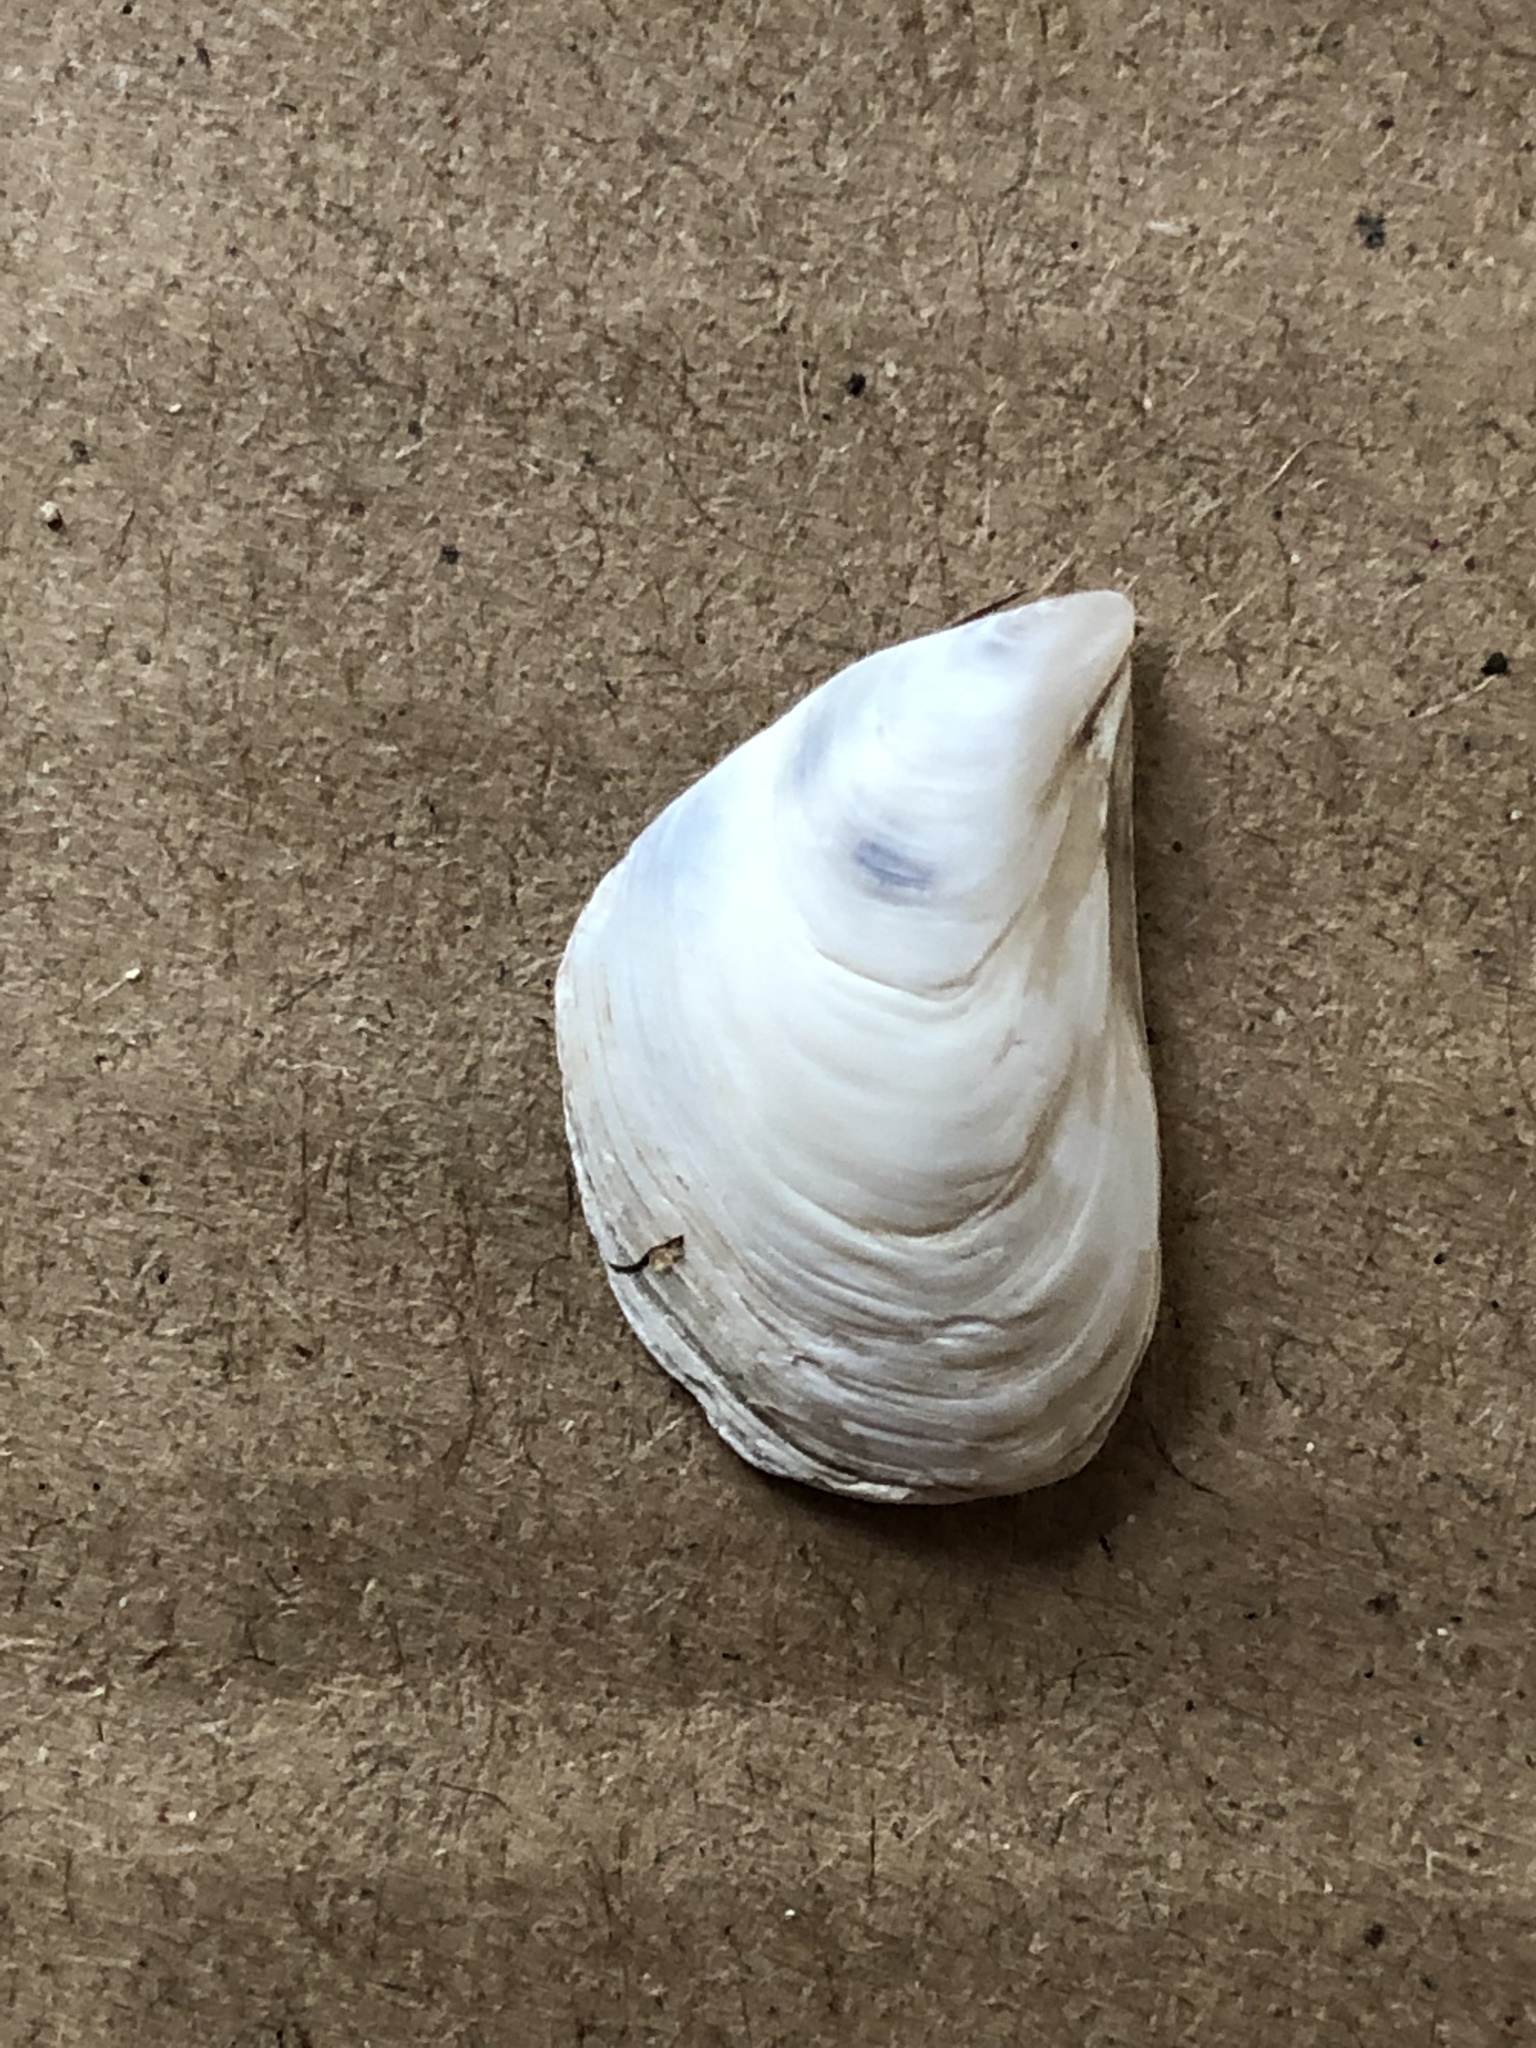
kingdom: Animalia
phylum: Mollusca
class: Bivalvia
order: Myida
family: Dreissenidae
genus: Dreissena
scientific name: Dreissena bugensis
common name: Quagga mussel
